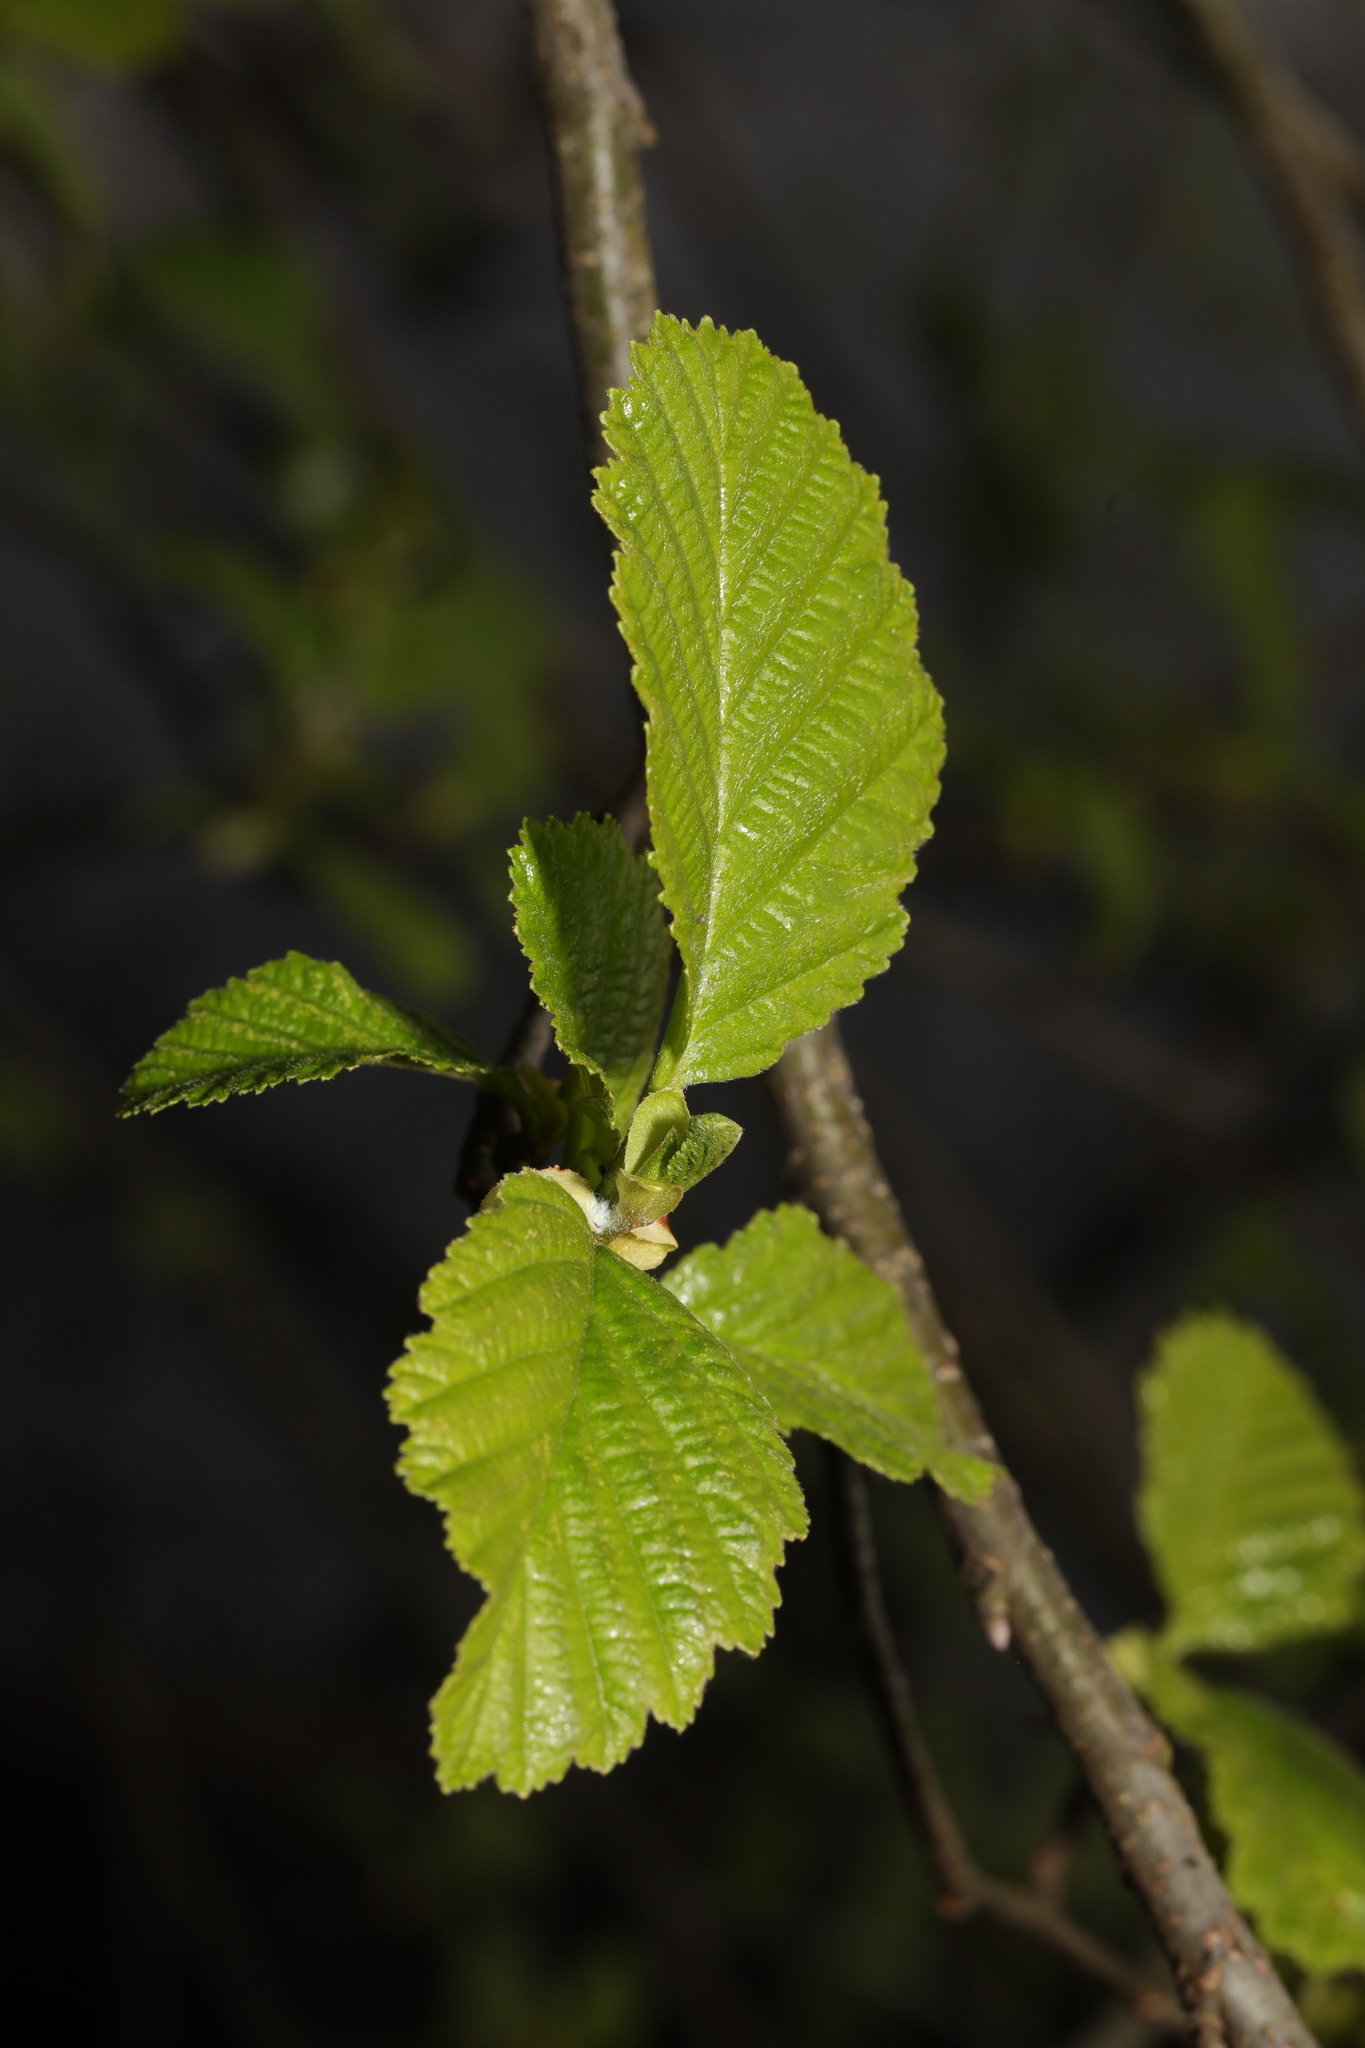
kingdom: Plantae
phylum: Tracheophyta
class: Magnoliopsida
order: Fagales
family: Betulaceae
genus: Alnus
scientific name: Alnus glutinosa
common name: Black alder
